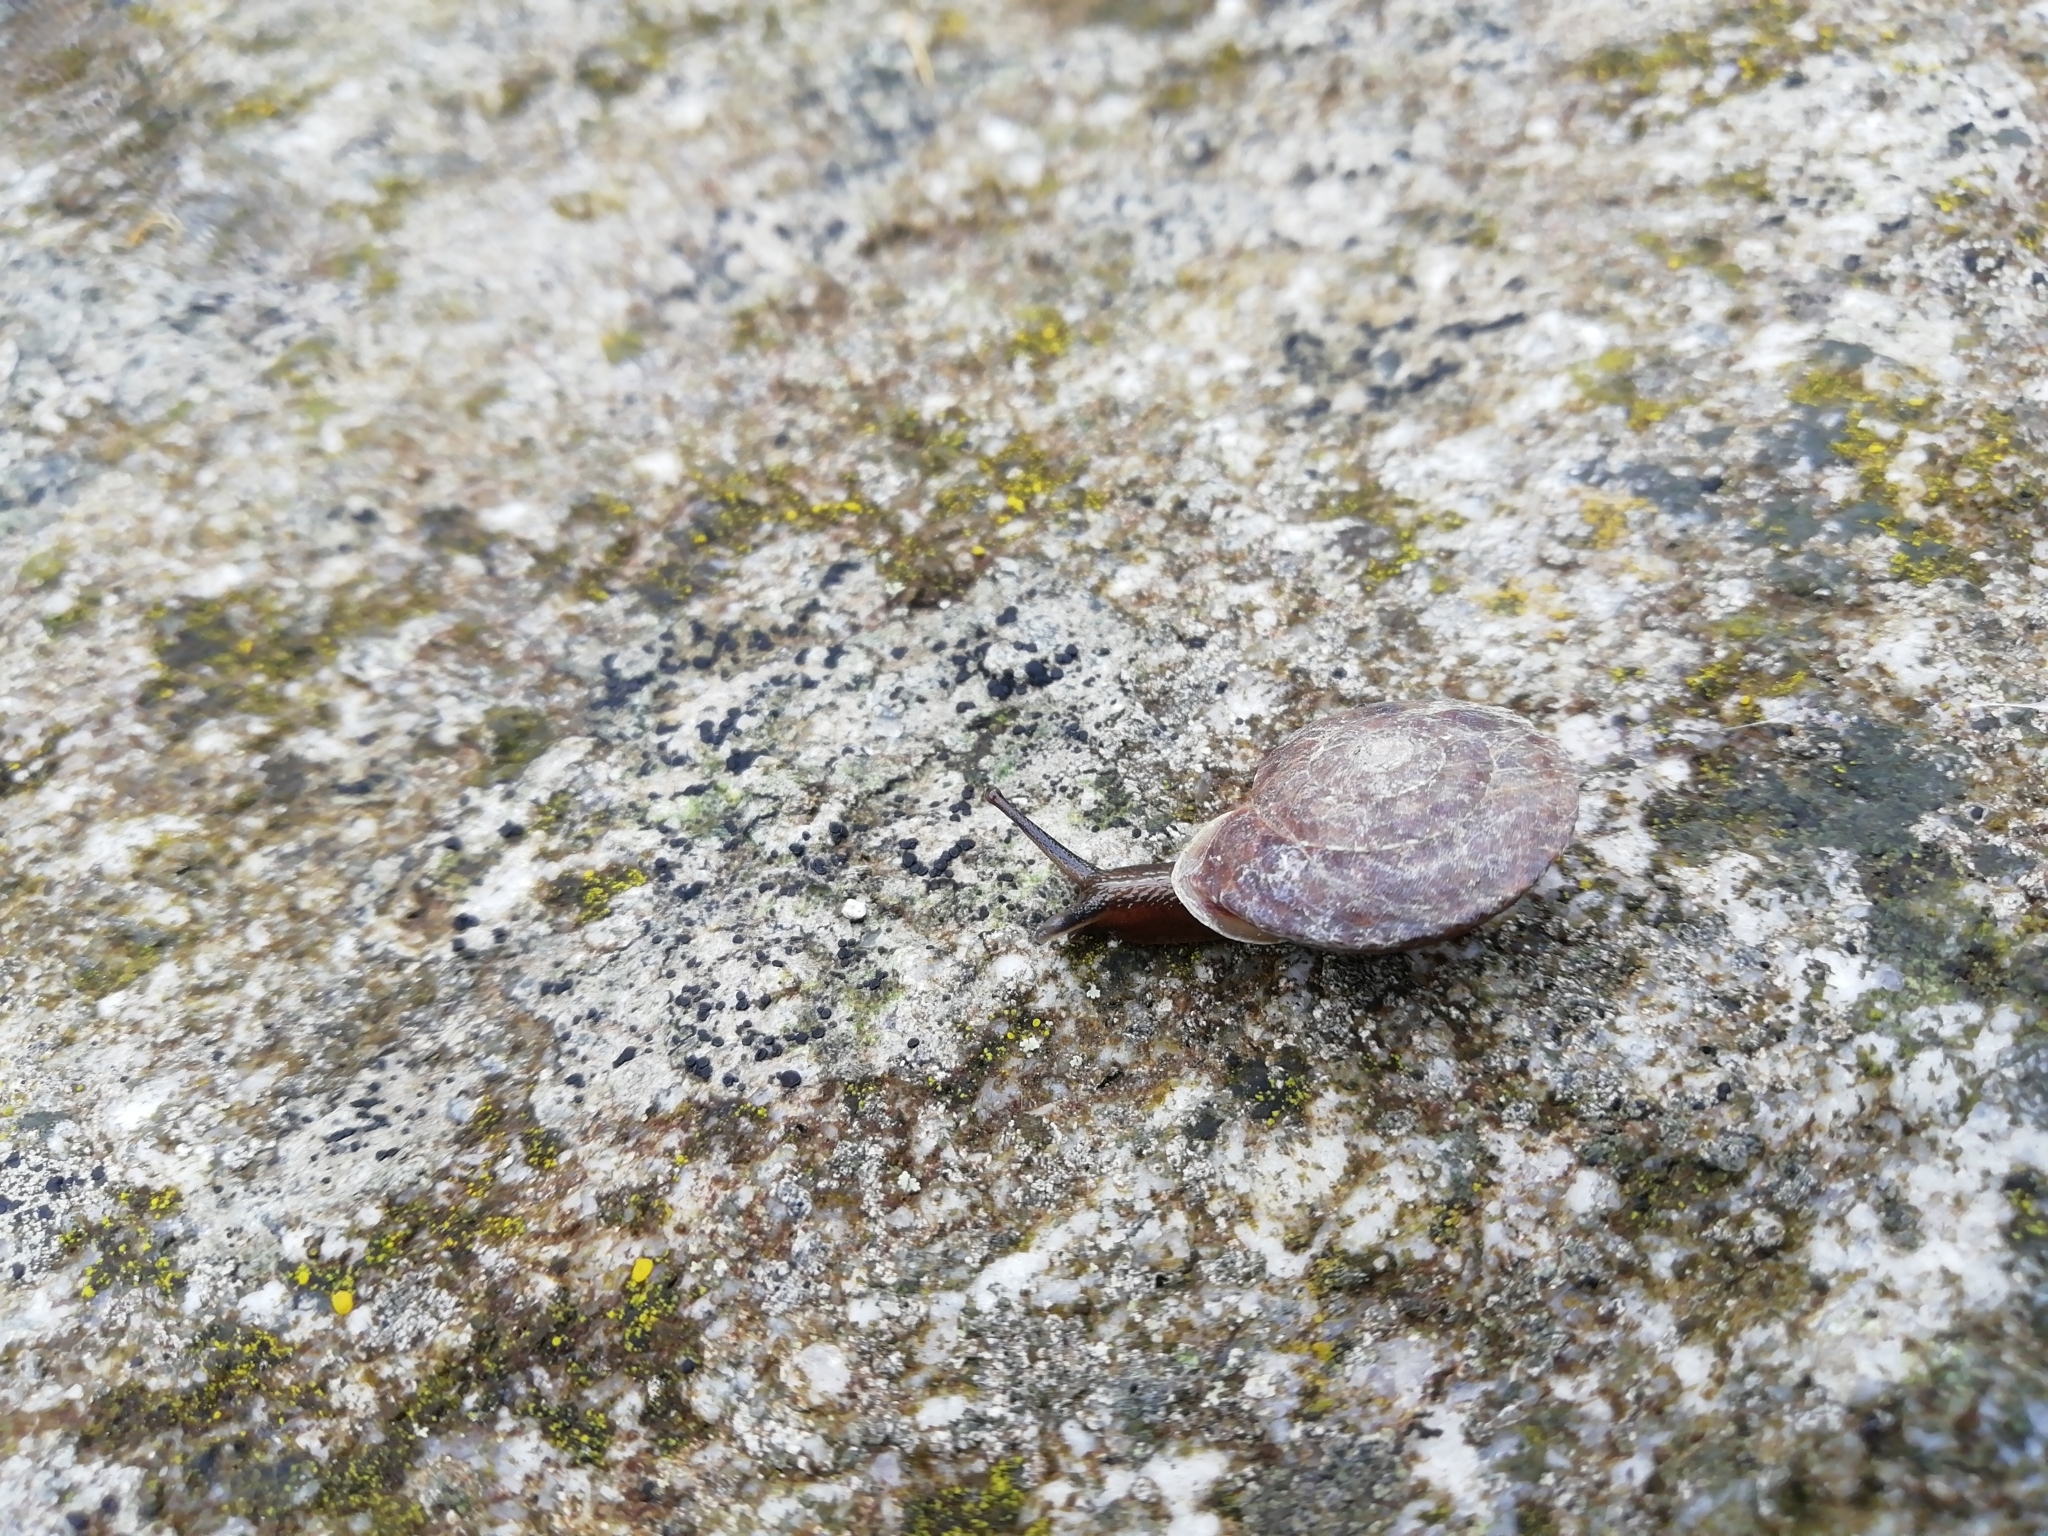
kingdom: Animalia
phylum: Mollusca
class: Gastropoda
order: Stylommatophora
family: Helicidae
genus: Helicigona
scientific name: Helicigona lapicida
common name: Lapidary snail
